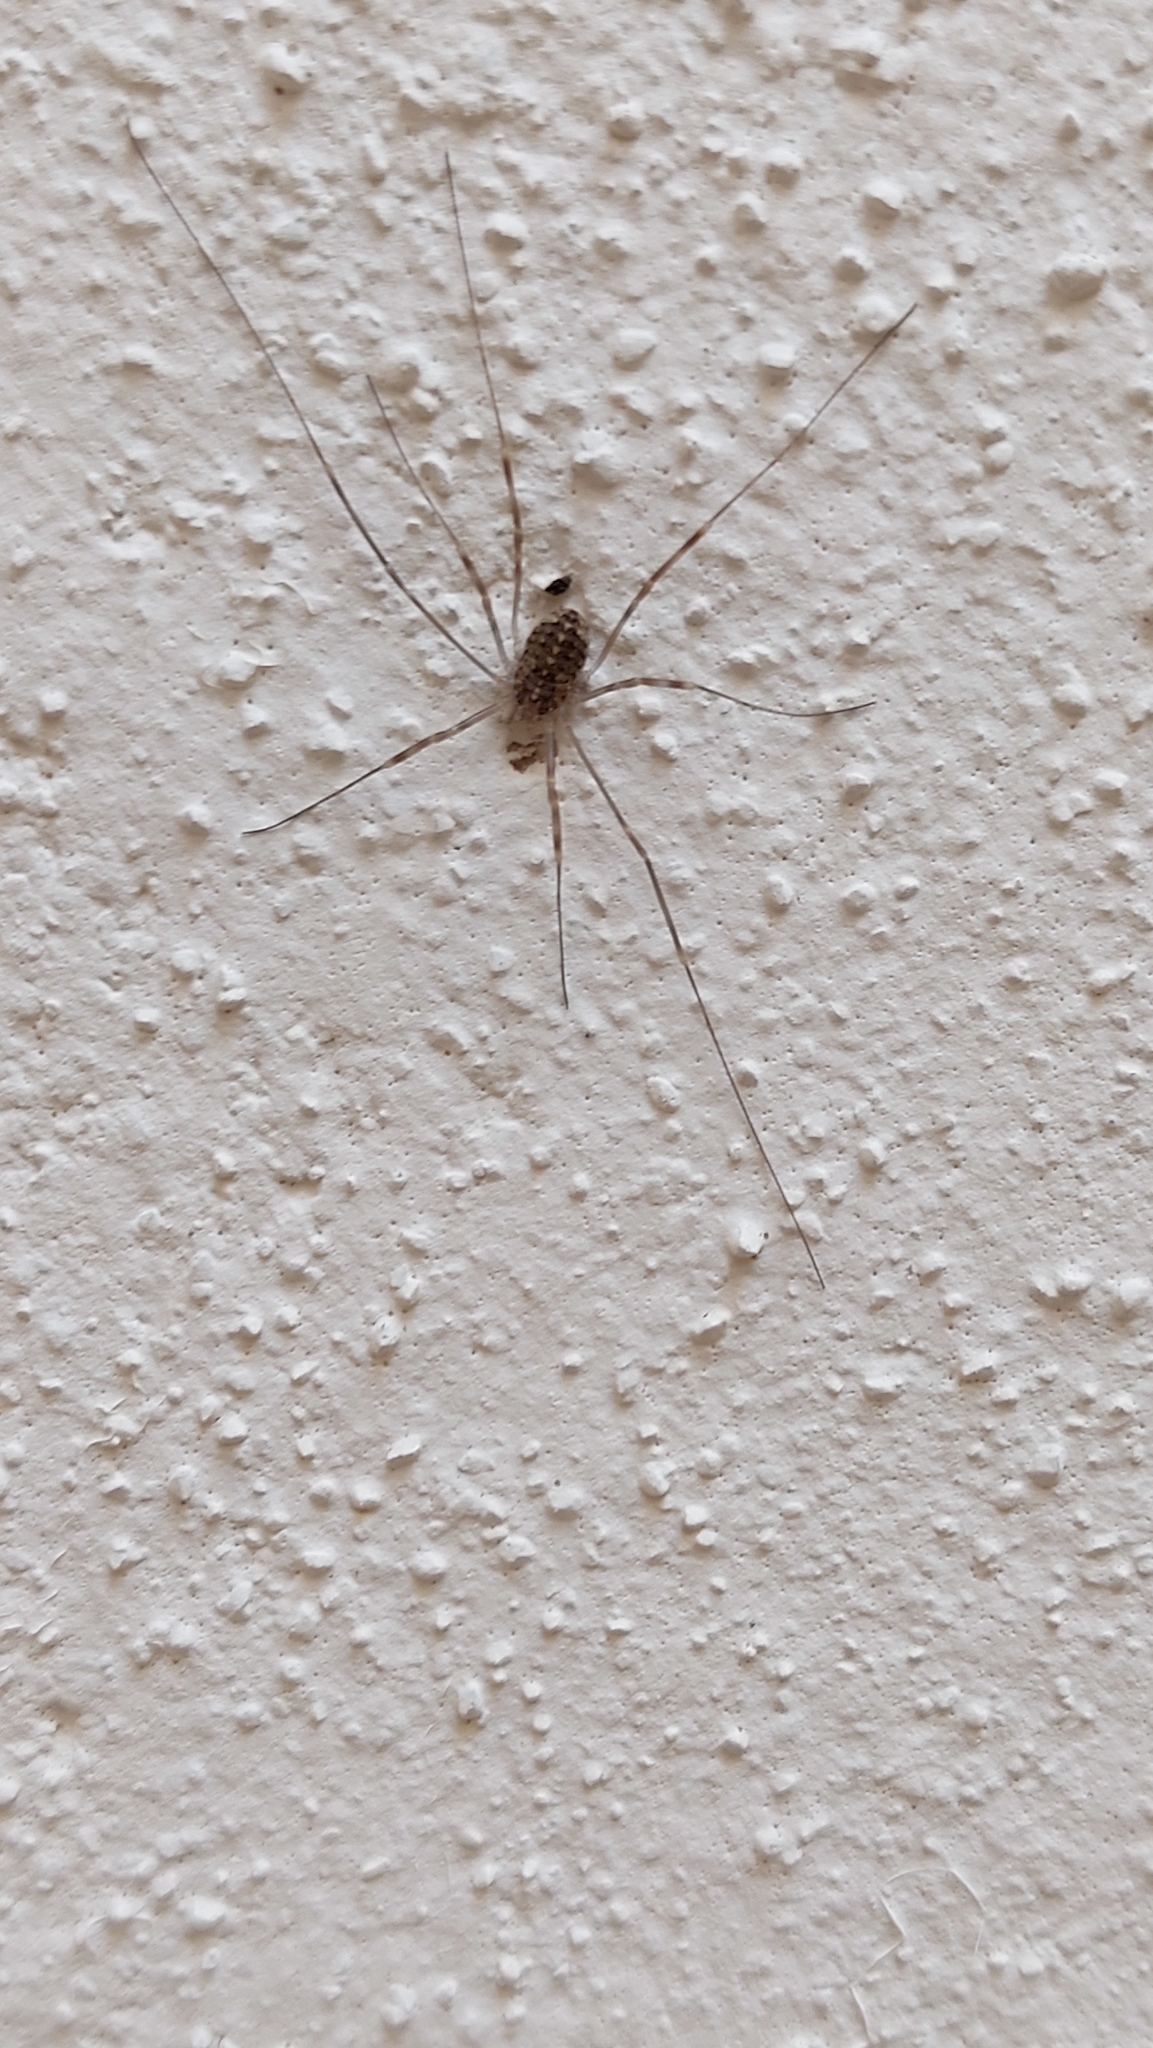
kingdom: Animalia
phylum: Arthropoda
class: Arachnida
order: Opiliones
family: Phalangiidae
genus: Opilio
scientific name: Opilio saxatilis
